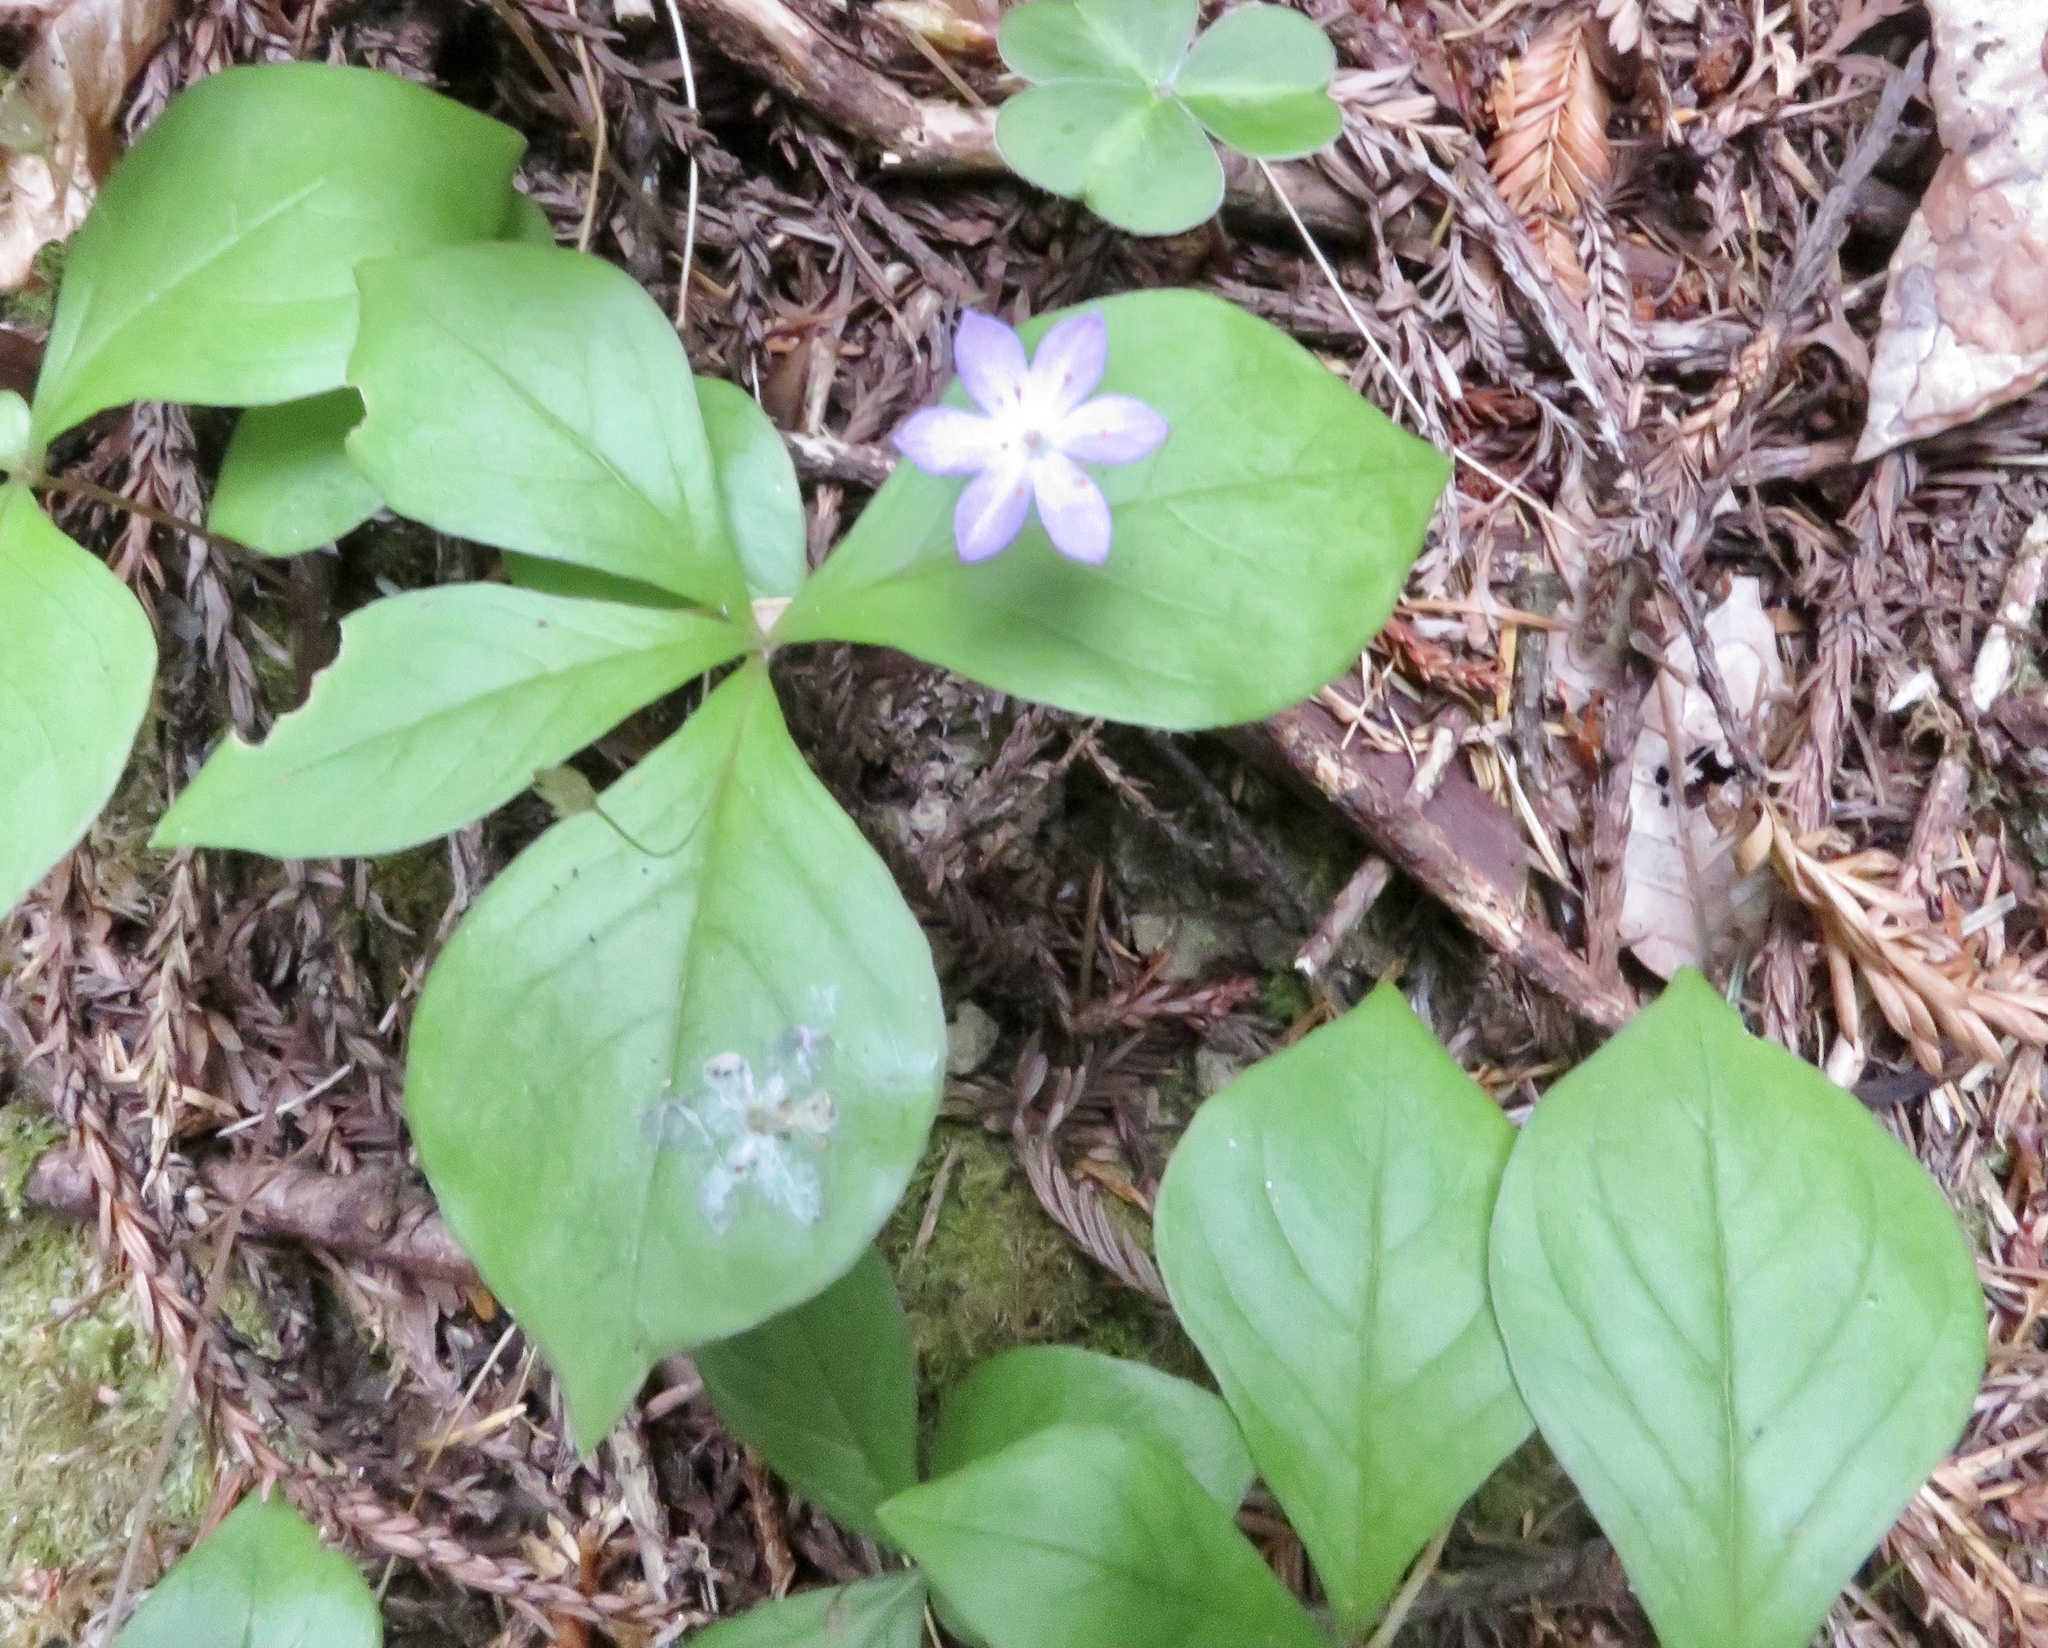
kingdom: Plantae
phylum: Tracheophyta
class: Magnoliopsida
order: Ericales
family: Primulaceae
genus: Lysimachia
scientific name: Lysimachia latifolia
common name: Pacific starflower
